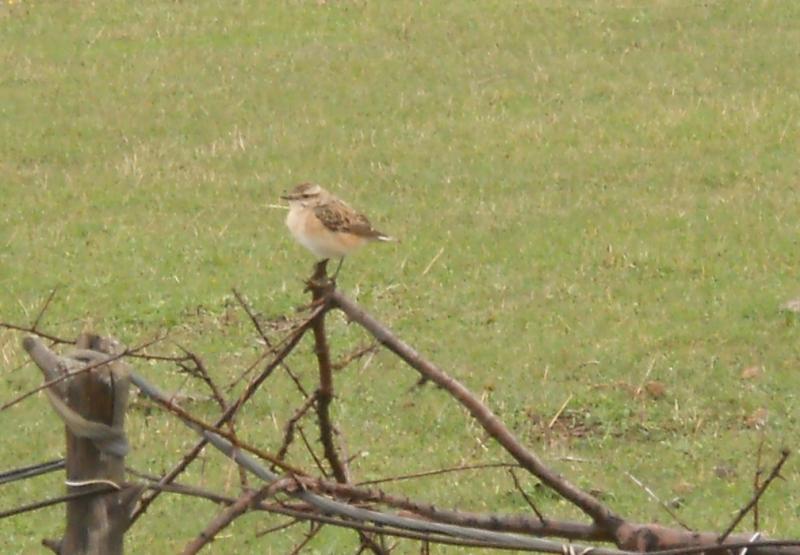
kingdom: Animalia
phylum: Chordata
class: Aves
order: Passeriformes
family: Muscicapidae
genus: Saxicola
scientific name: Saxicola rubetra
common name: Whinchat
